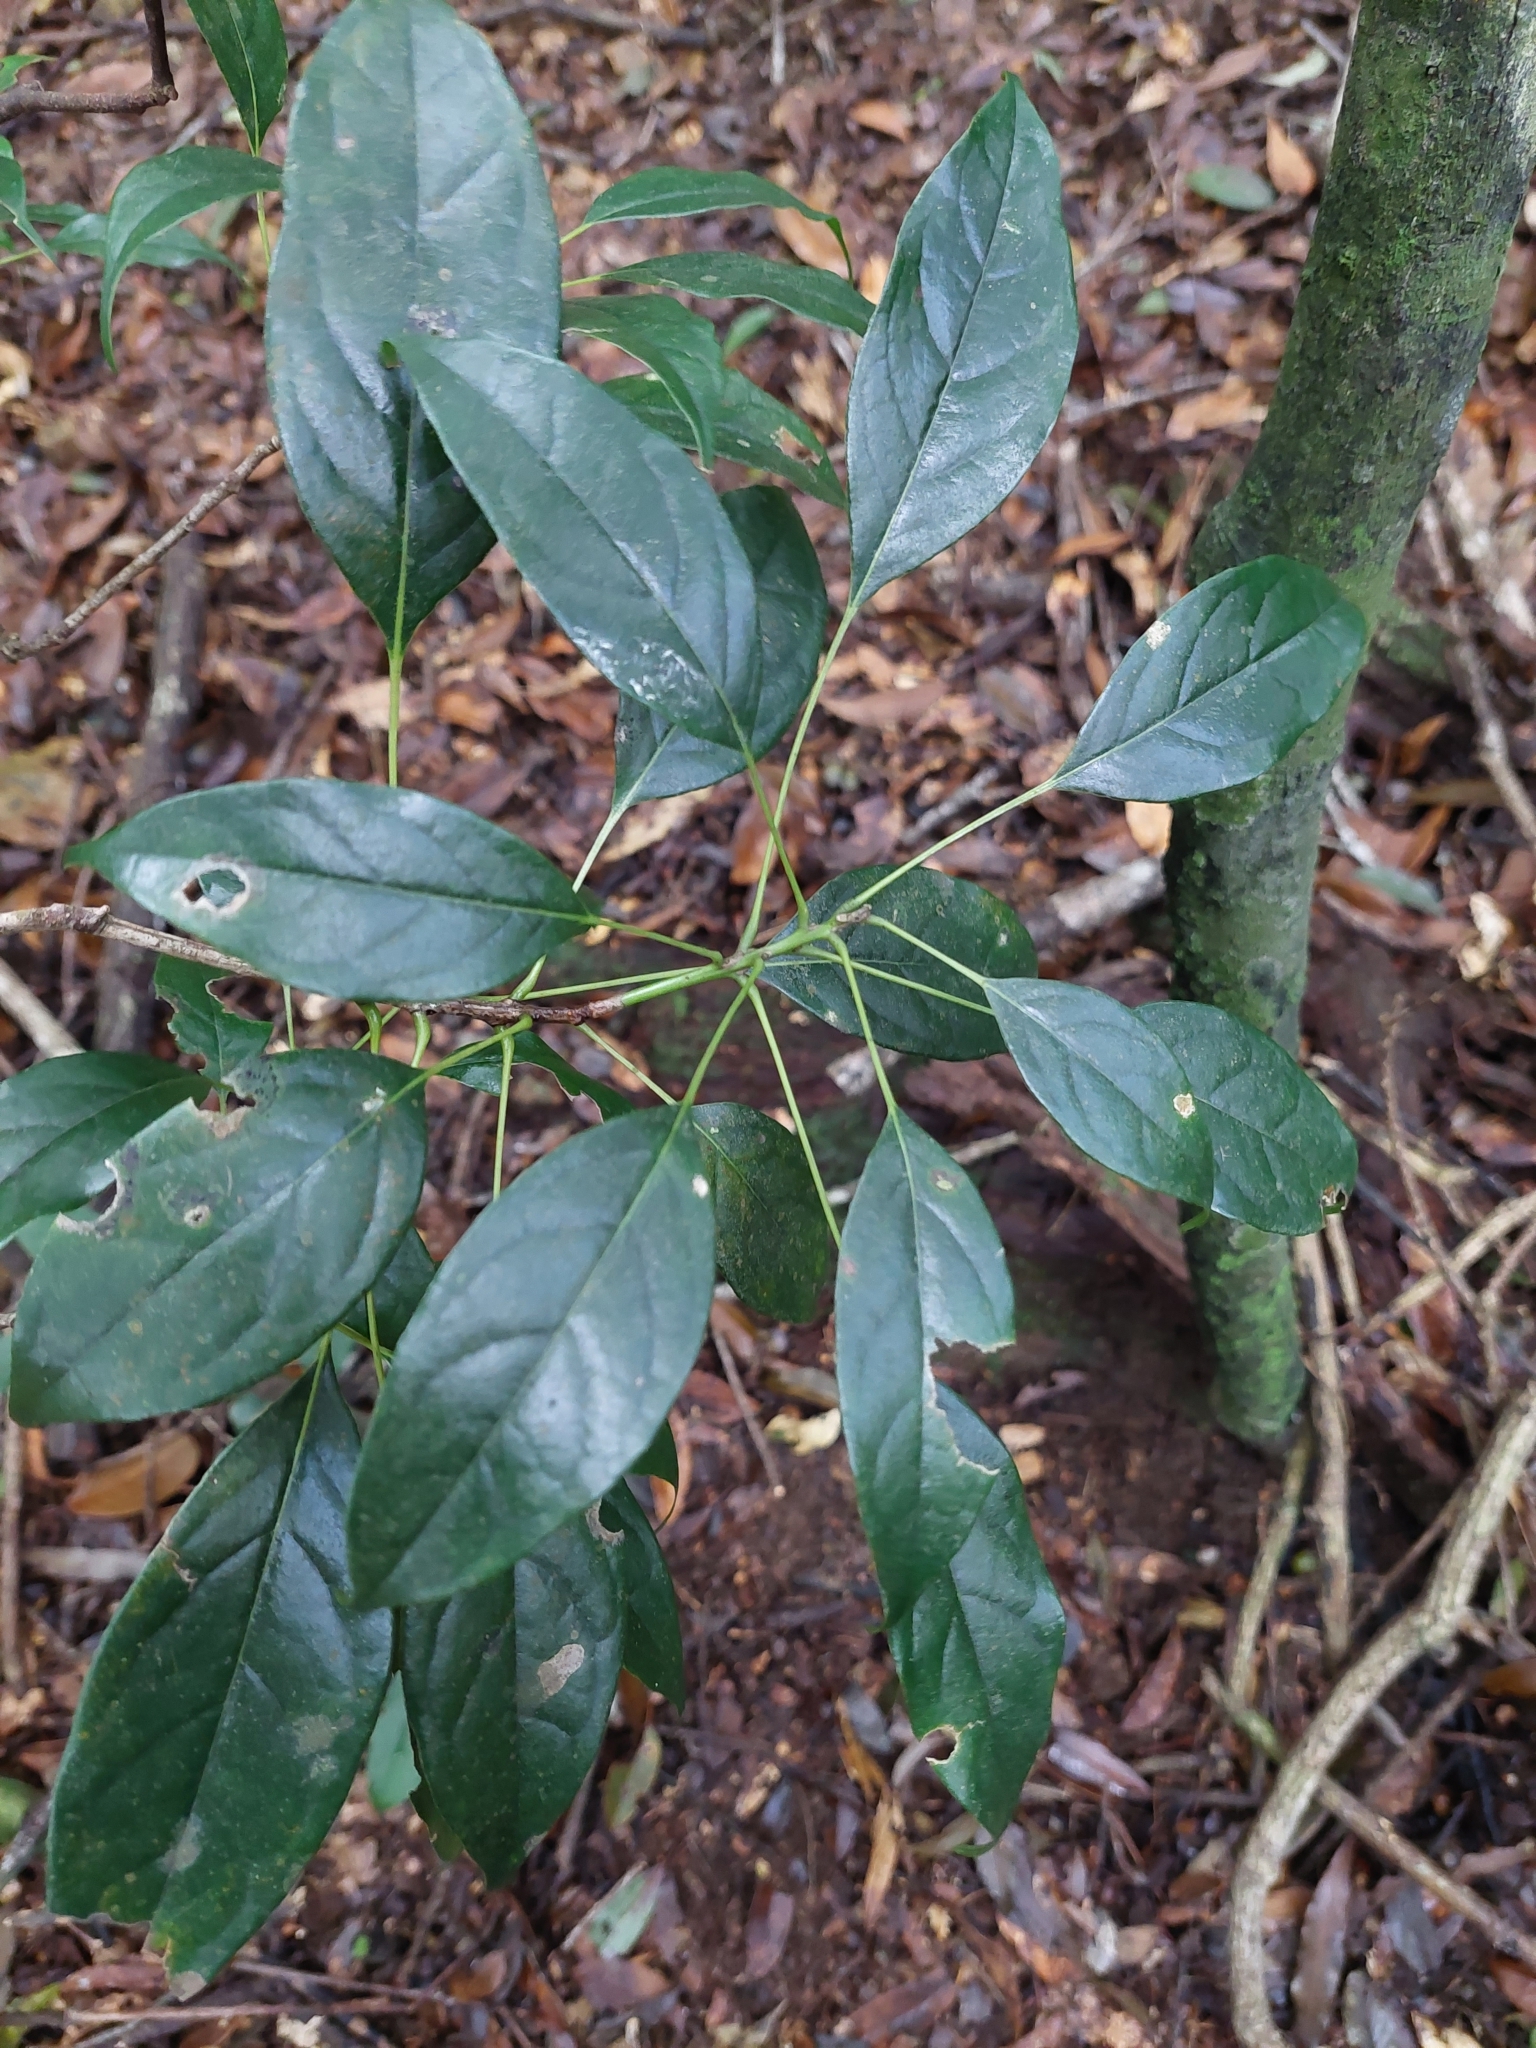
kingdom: Plantae
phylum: Tracheophyta
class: Magnoliopsida
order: Proteales
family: Sabiaceae
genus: Meliosma
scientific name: Meliosma squamulata
